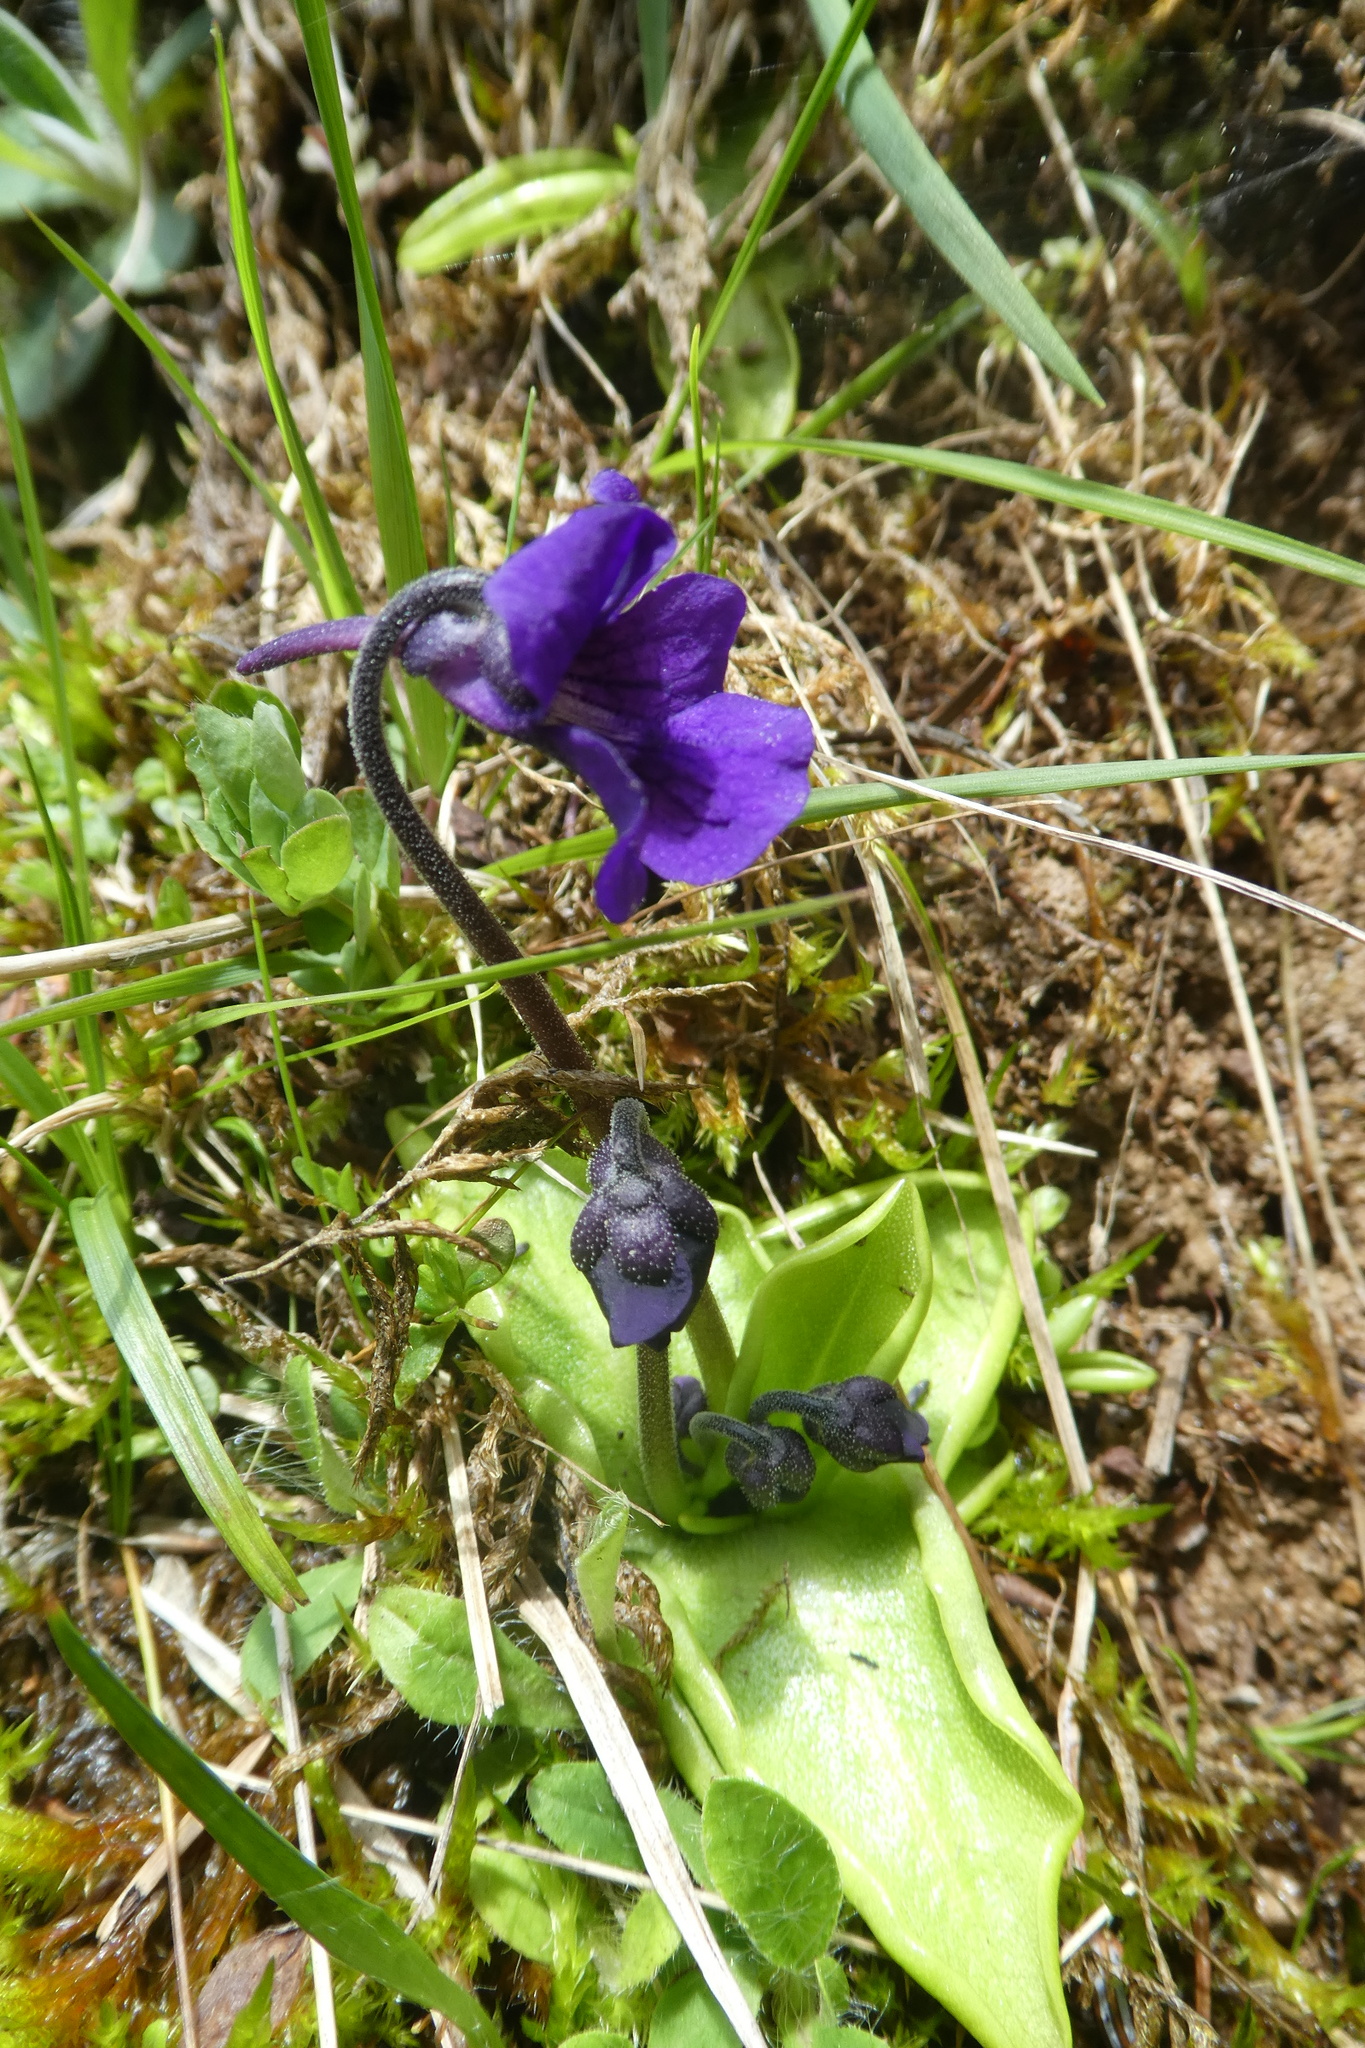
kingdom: Plantae
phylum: Tracheophyta
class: Magnoliopsida
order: Lamiales
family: Lentibulariaceae
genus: Pinguicula
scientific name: Pinguicula grandiflora
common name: Large-flowered butterwort
